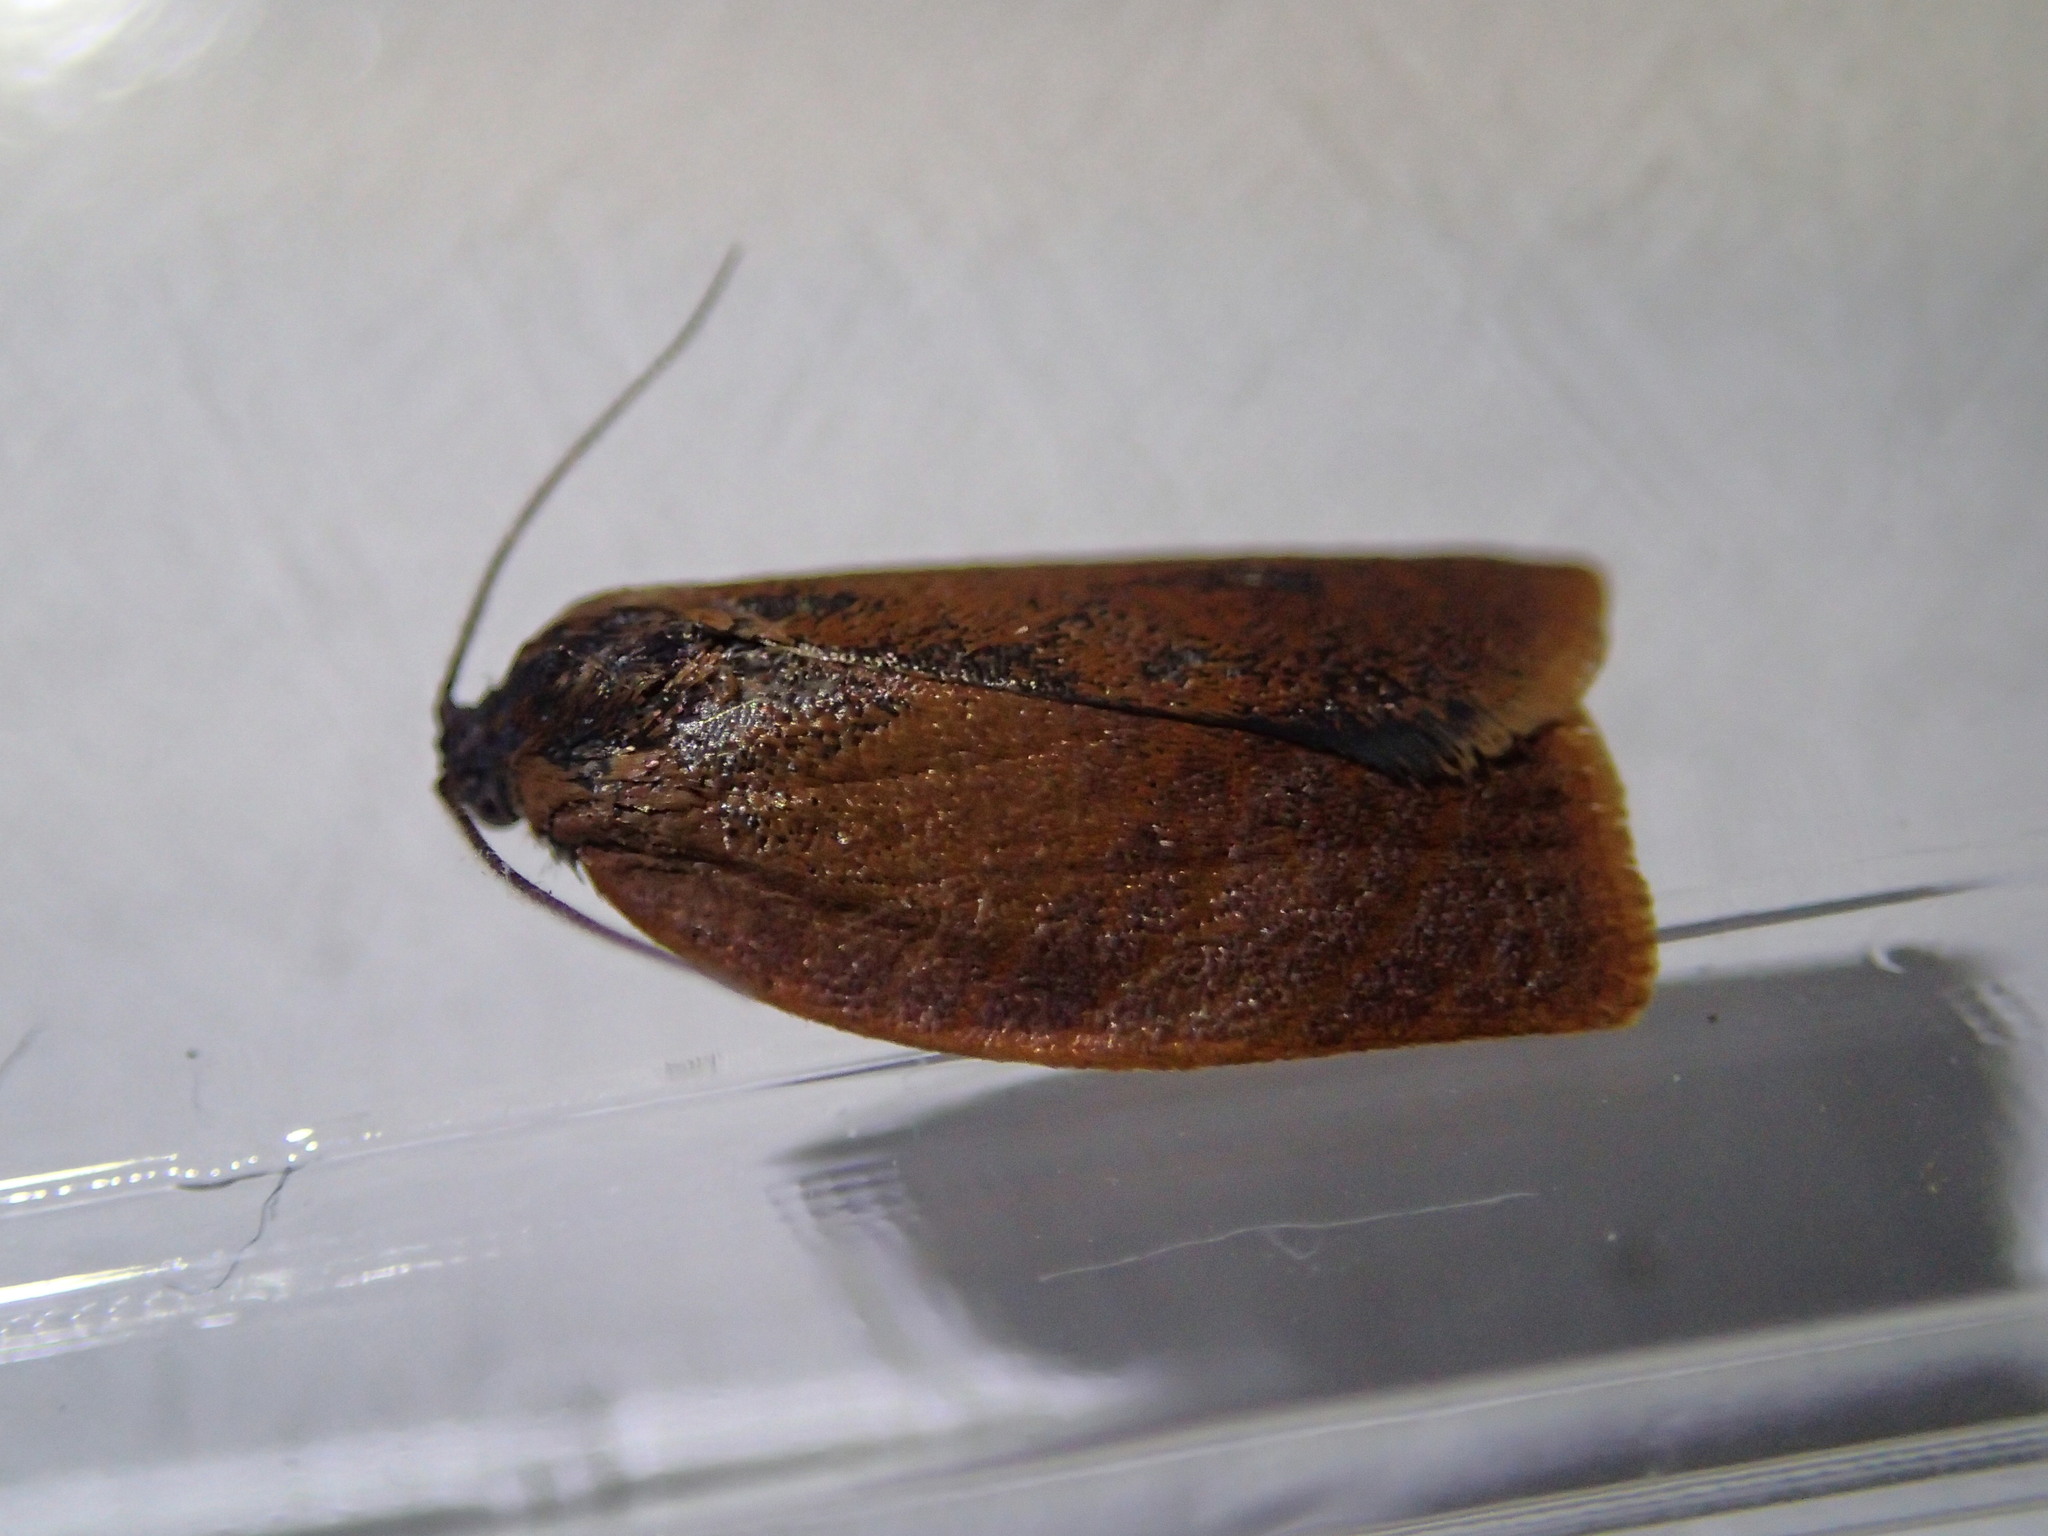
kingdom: Animalia
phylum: Arthropoda
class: Insecta
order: Lepidoptera
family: Tortricidae
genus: Cacoecimorpha
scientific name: Cacoecimorpha pronubana
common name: Carnation tortrix
